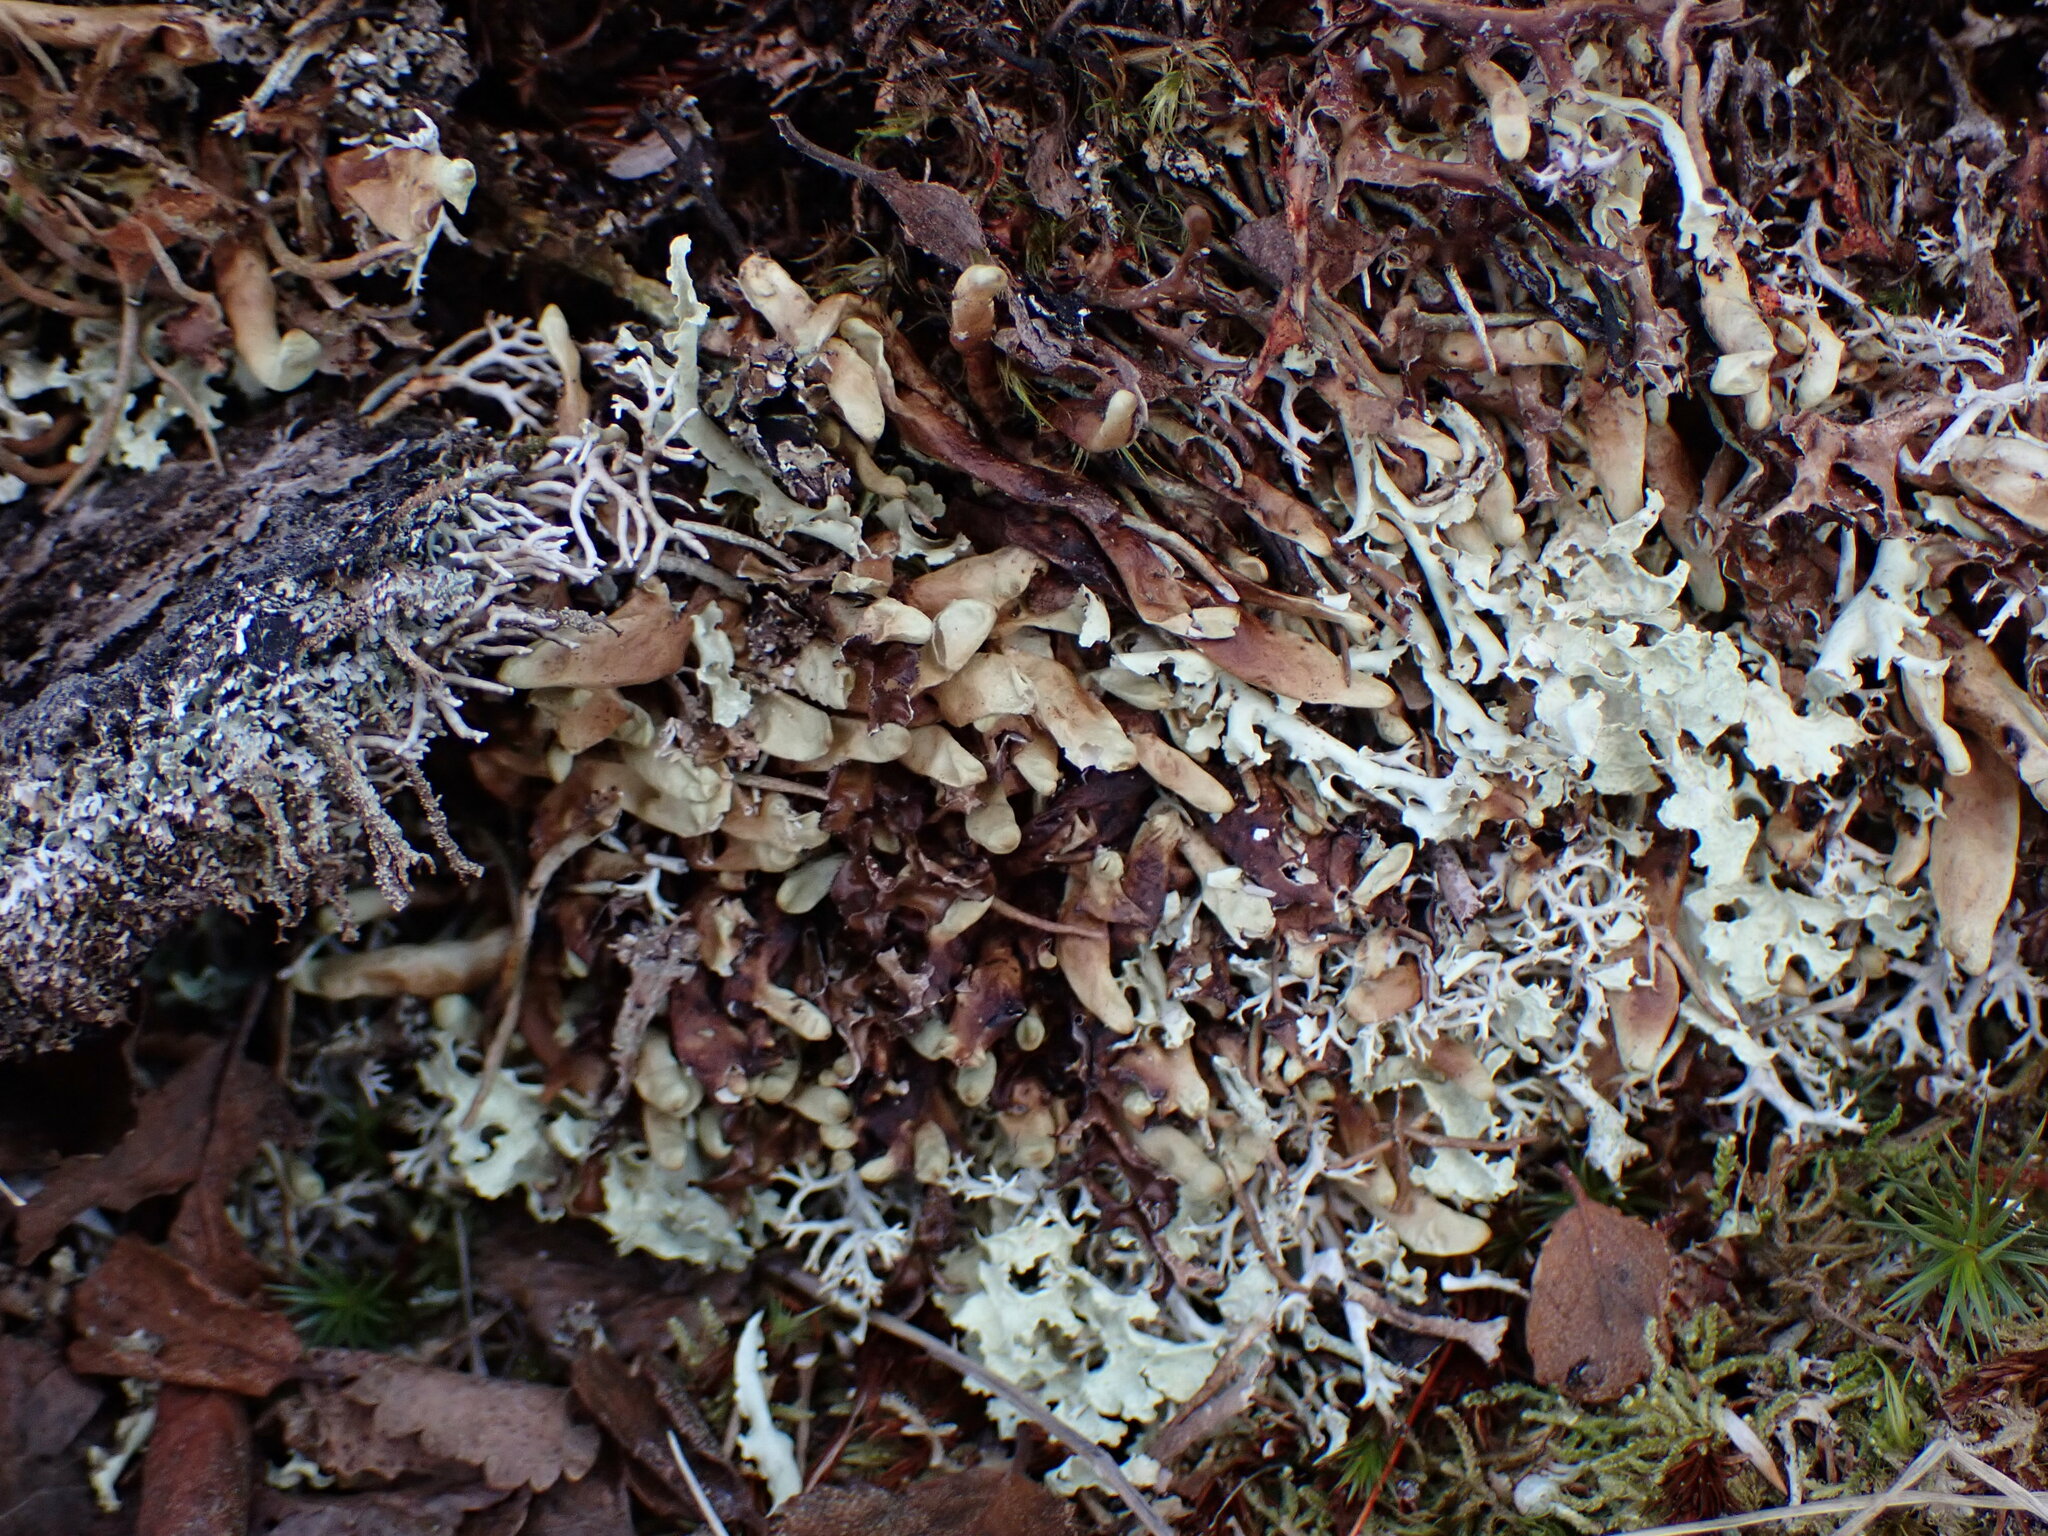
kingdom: Fungi
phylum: Ascomycota
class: Lecanoromycetes
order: Lecanorales
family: Parmeliaceae
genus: Dactylina
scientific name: Dactylina arctica
